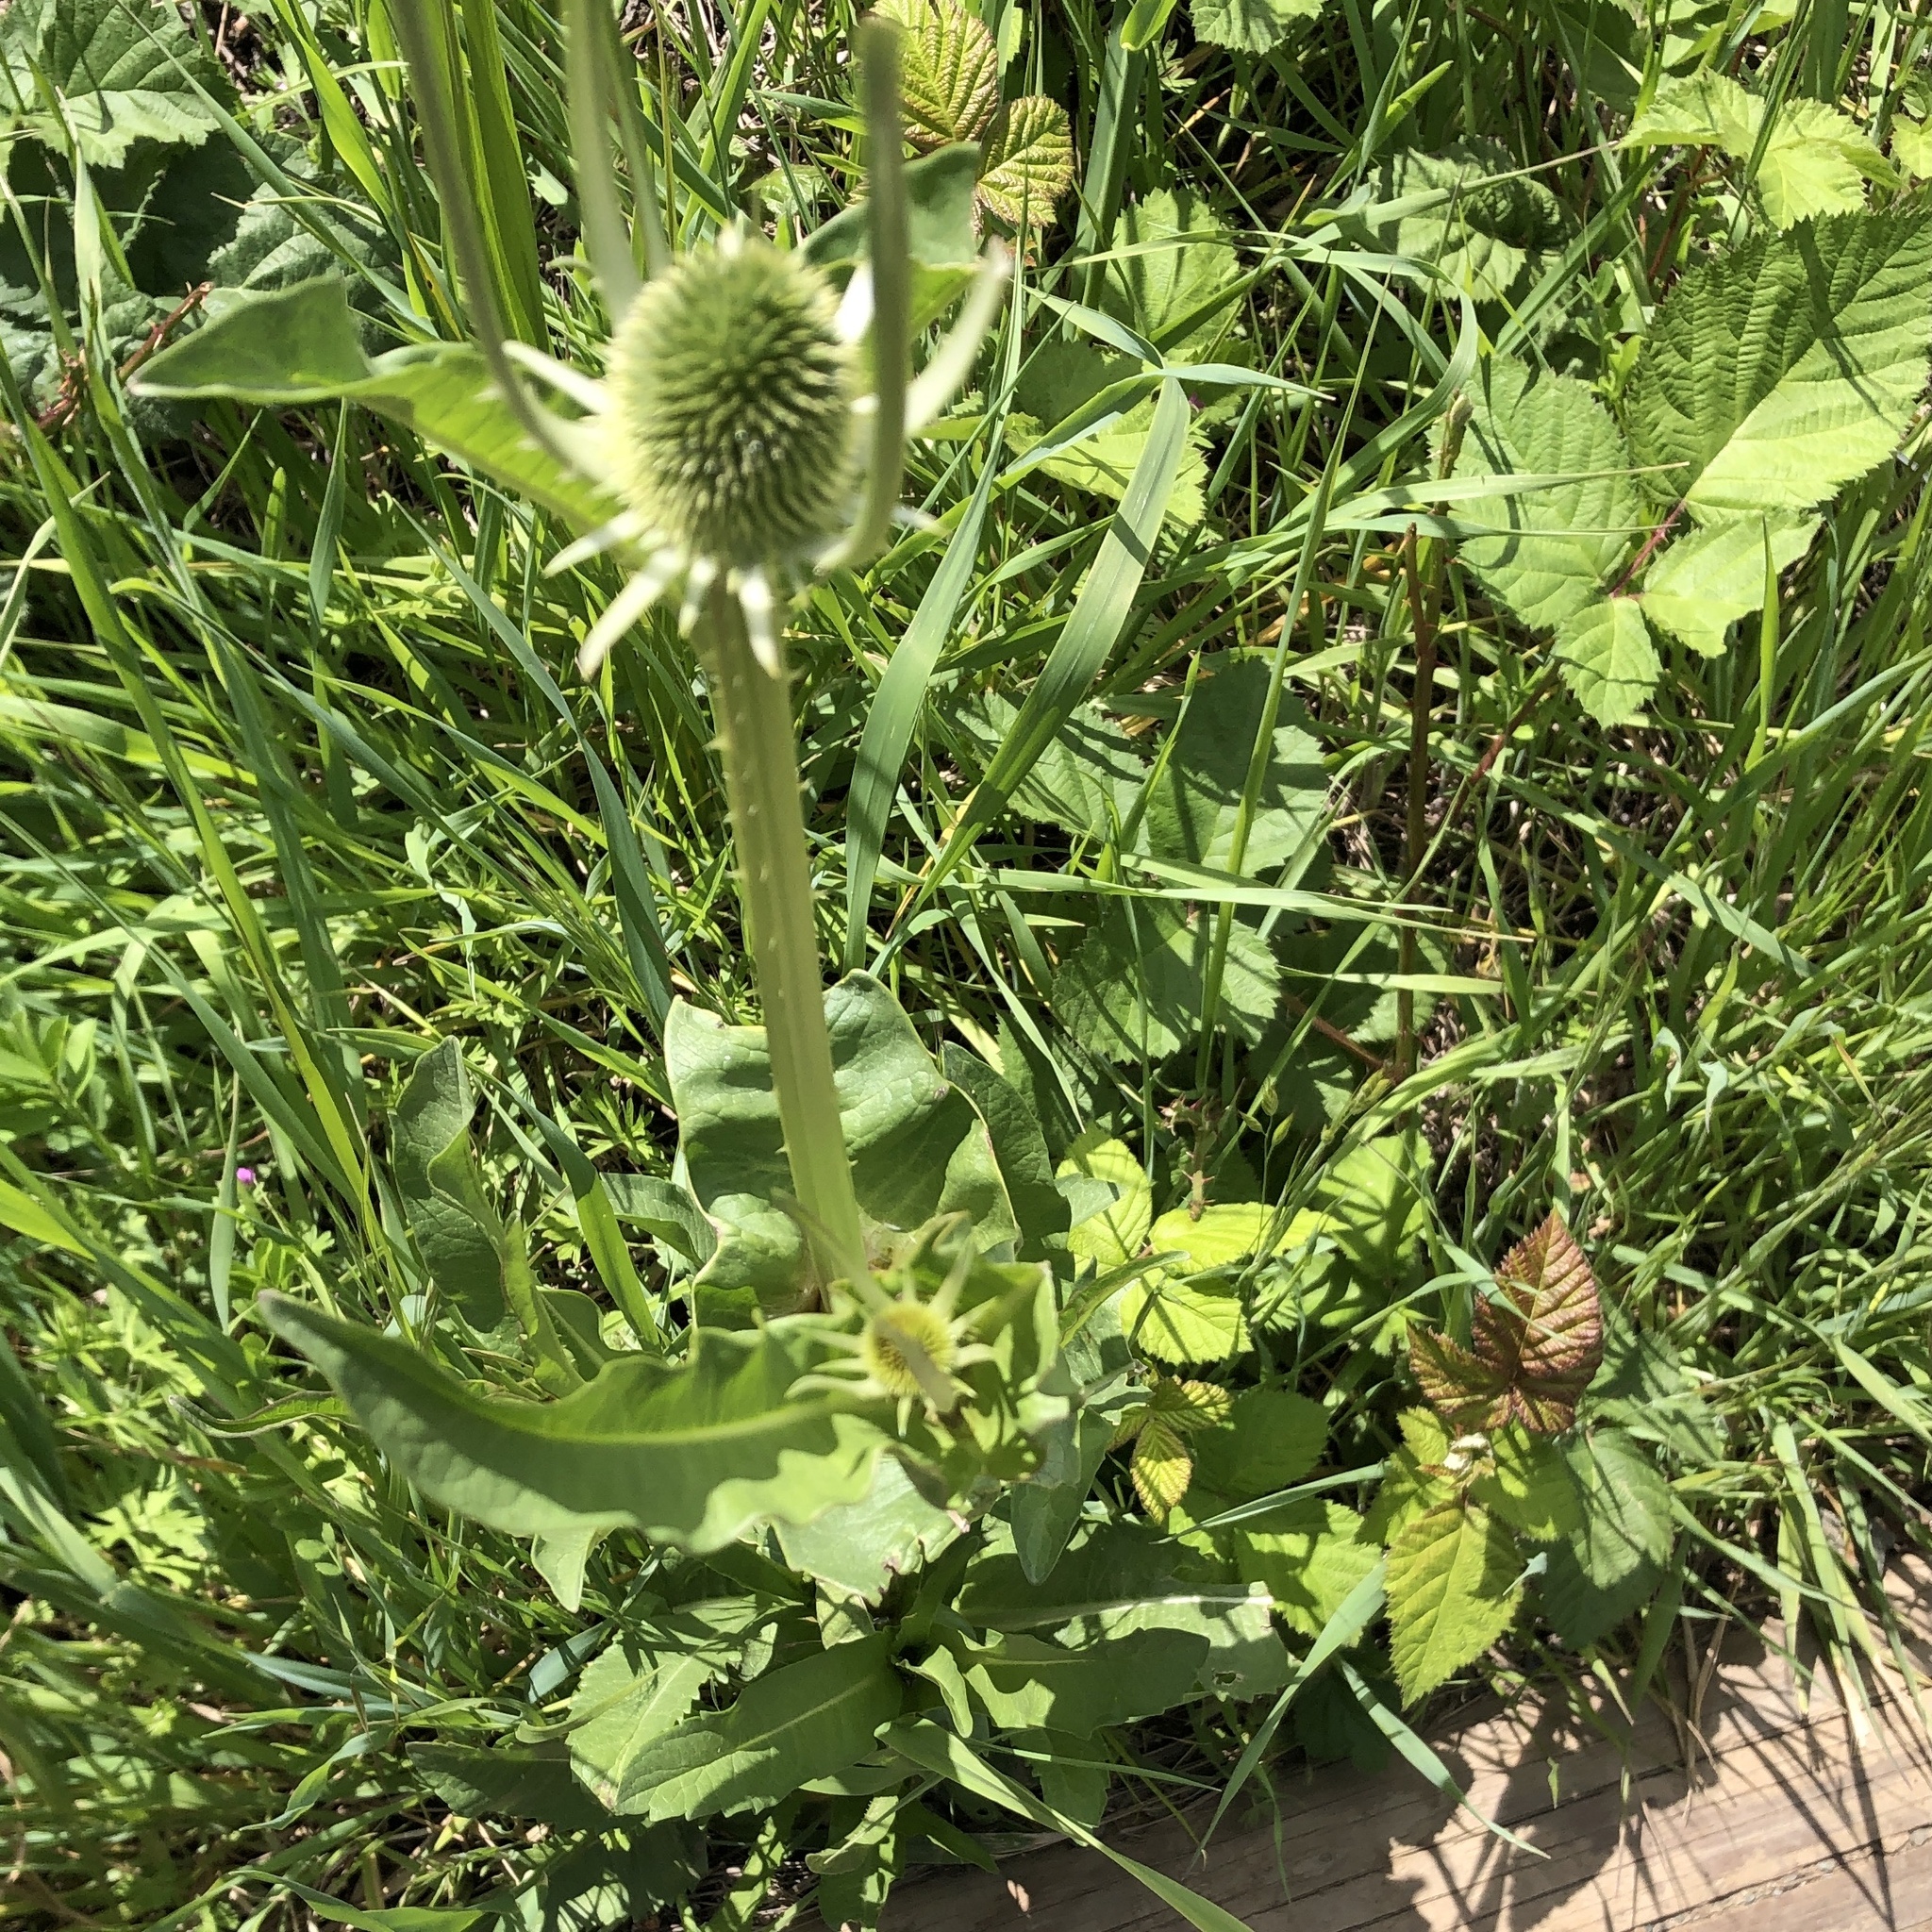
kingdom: Plantae
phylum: Tracheophyta
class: Magnoliopsida
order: Dipsacales
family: Caprifoliaceae
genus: Dipsacus
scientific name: Dipsacus sativus
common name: Fuller's teasel
